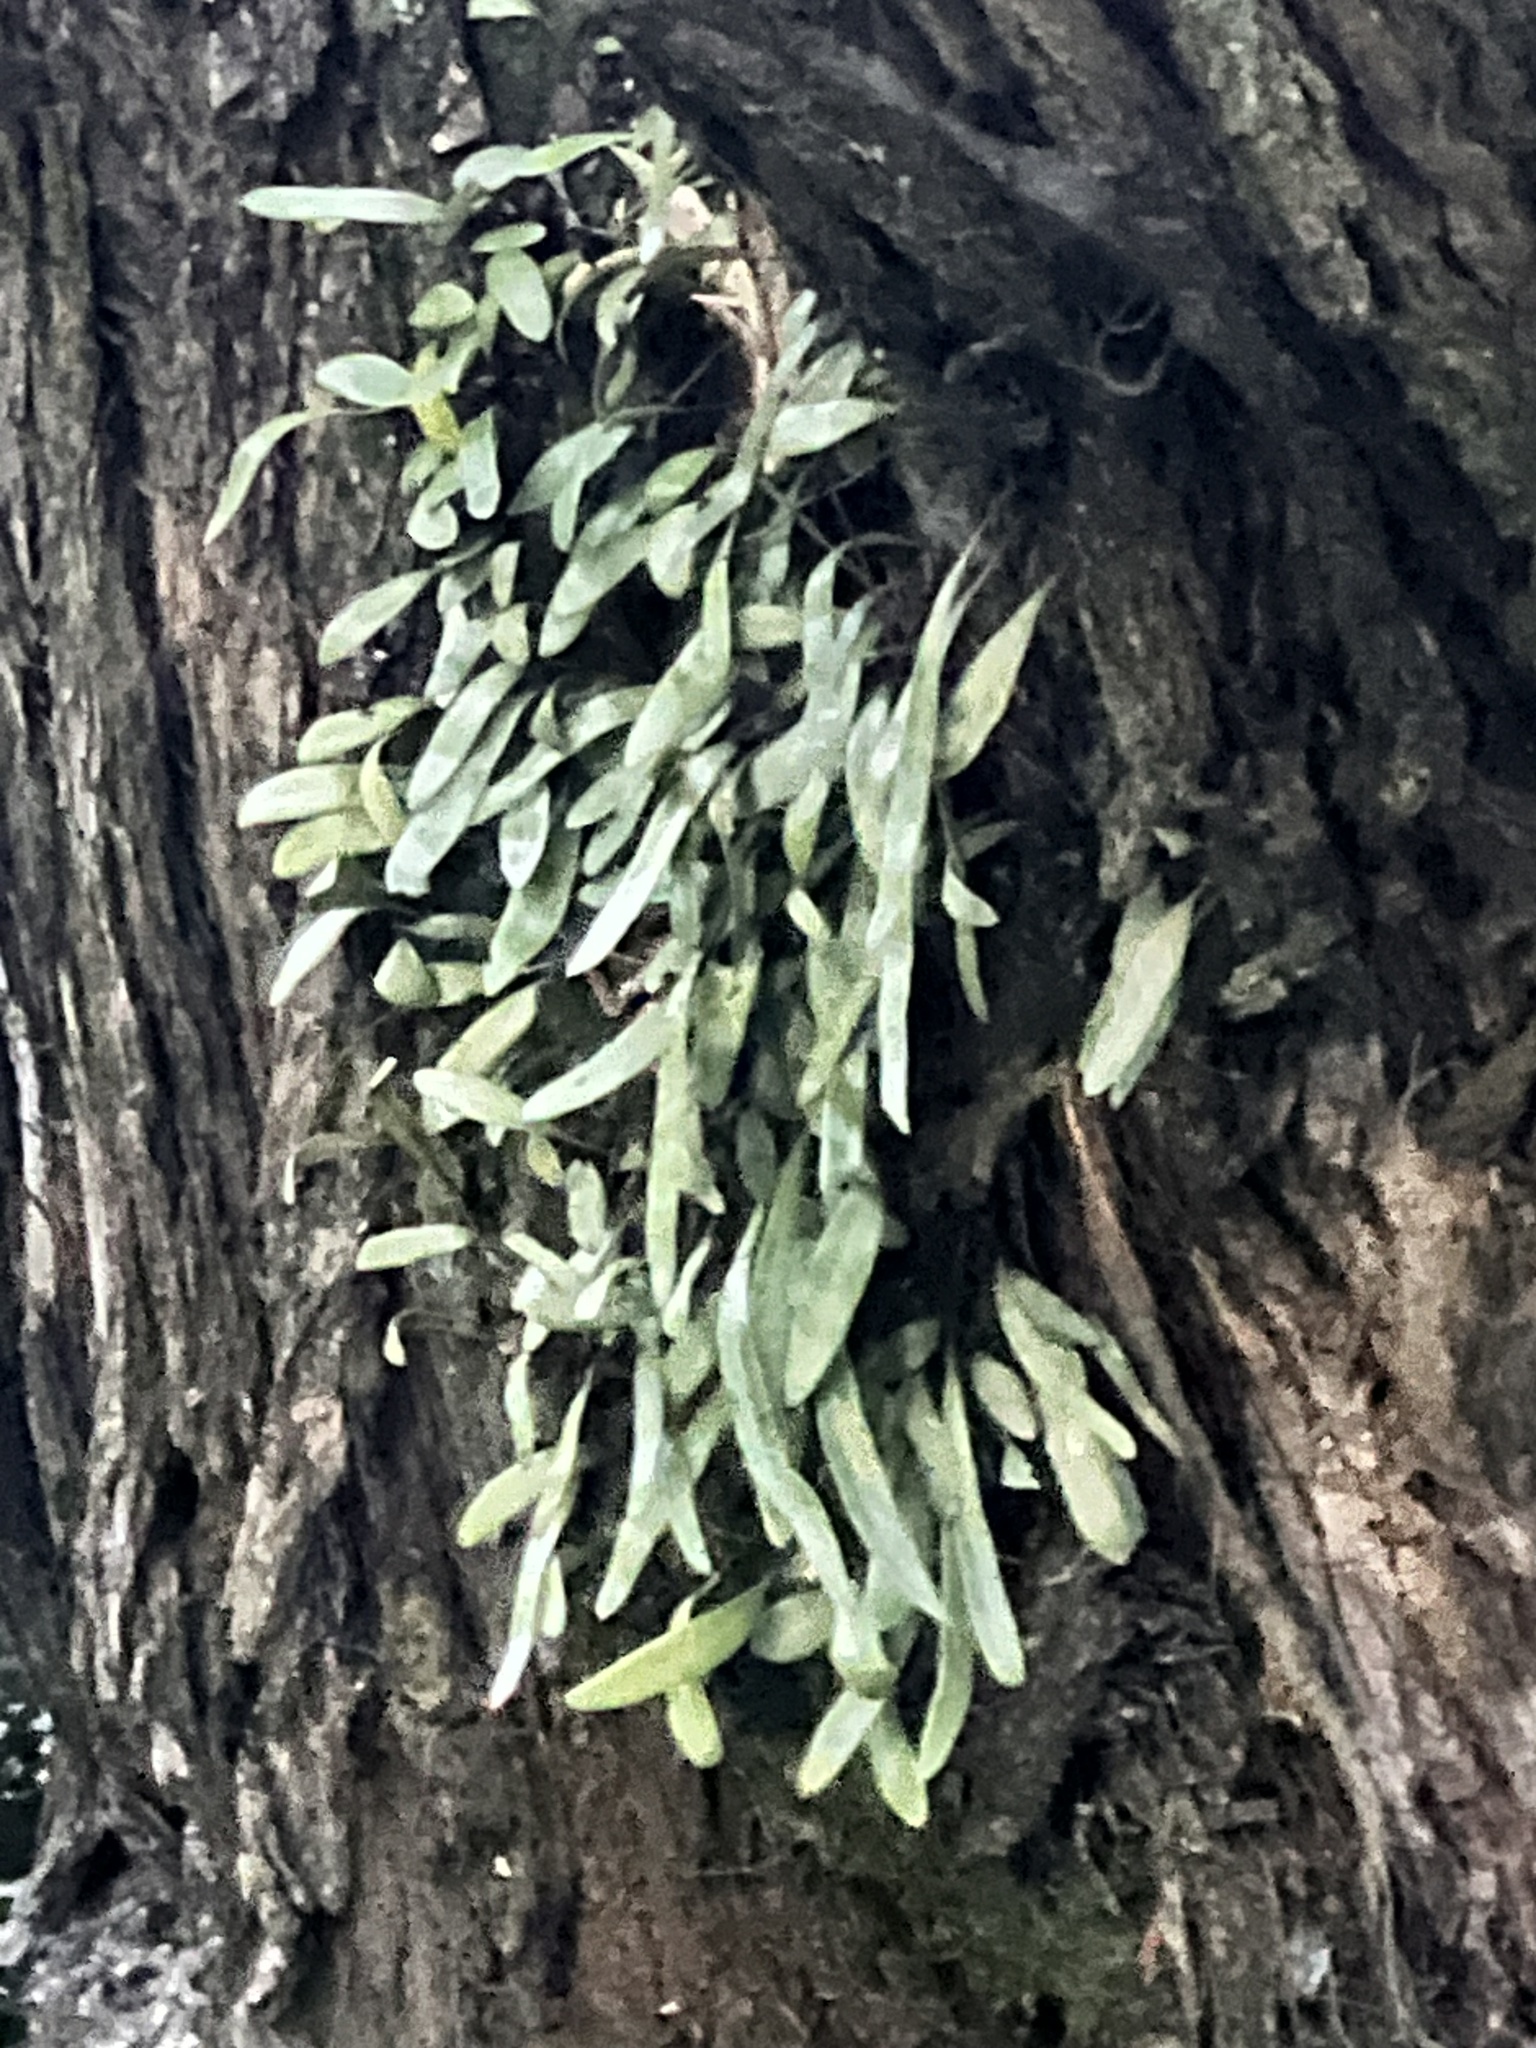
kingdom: Plantae
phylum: Tracheophyta
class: Polypodiopsida
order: Polypodiales
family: Polypodiaceae
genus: Pyrrosia
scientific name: Pyrrosia eleagnifolia
